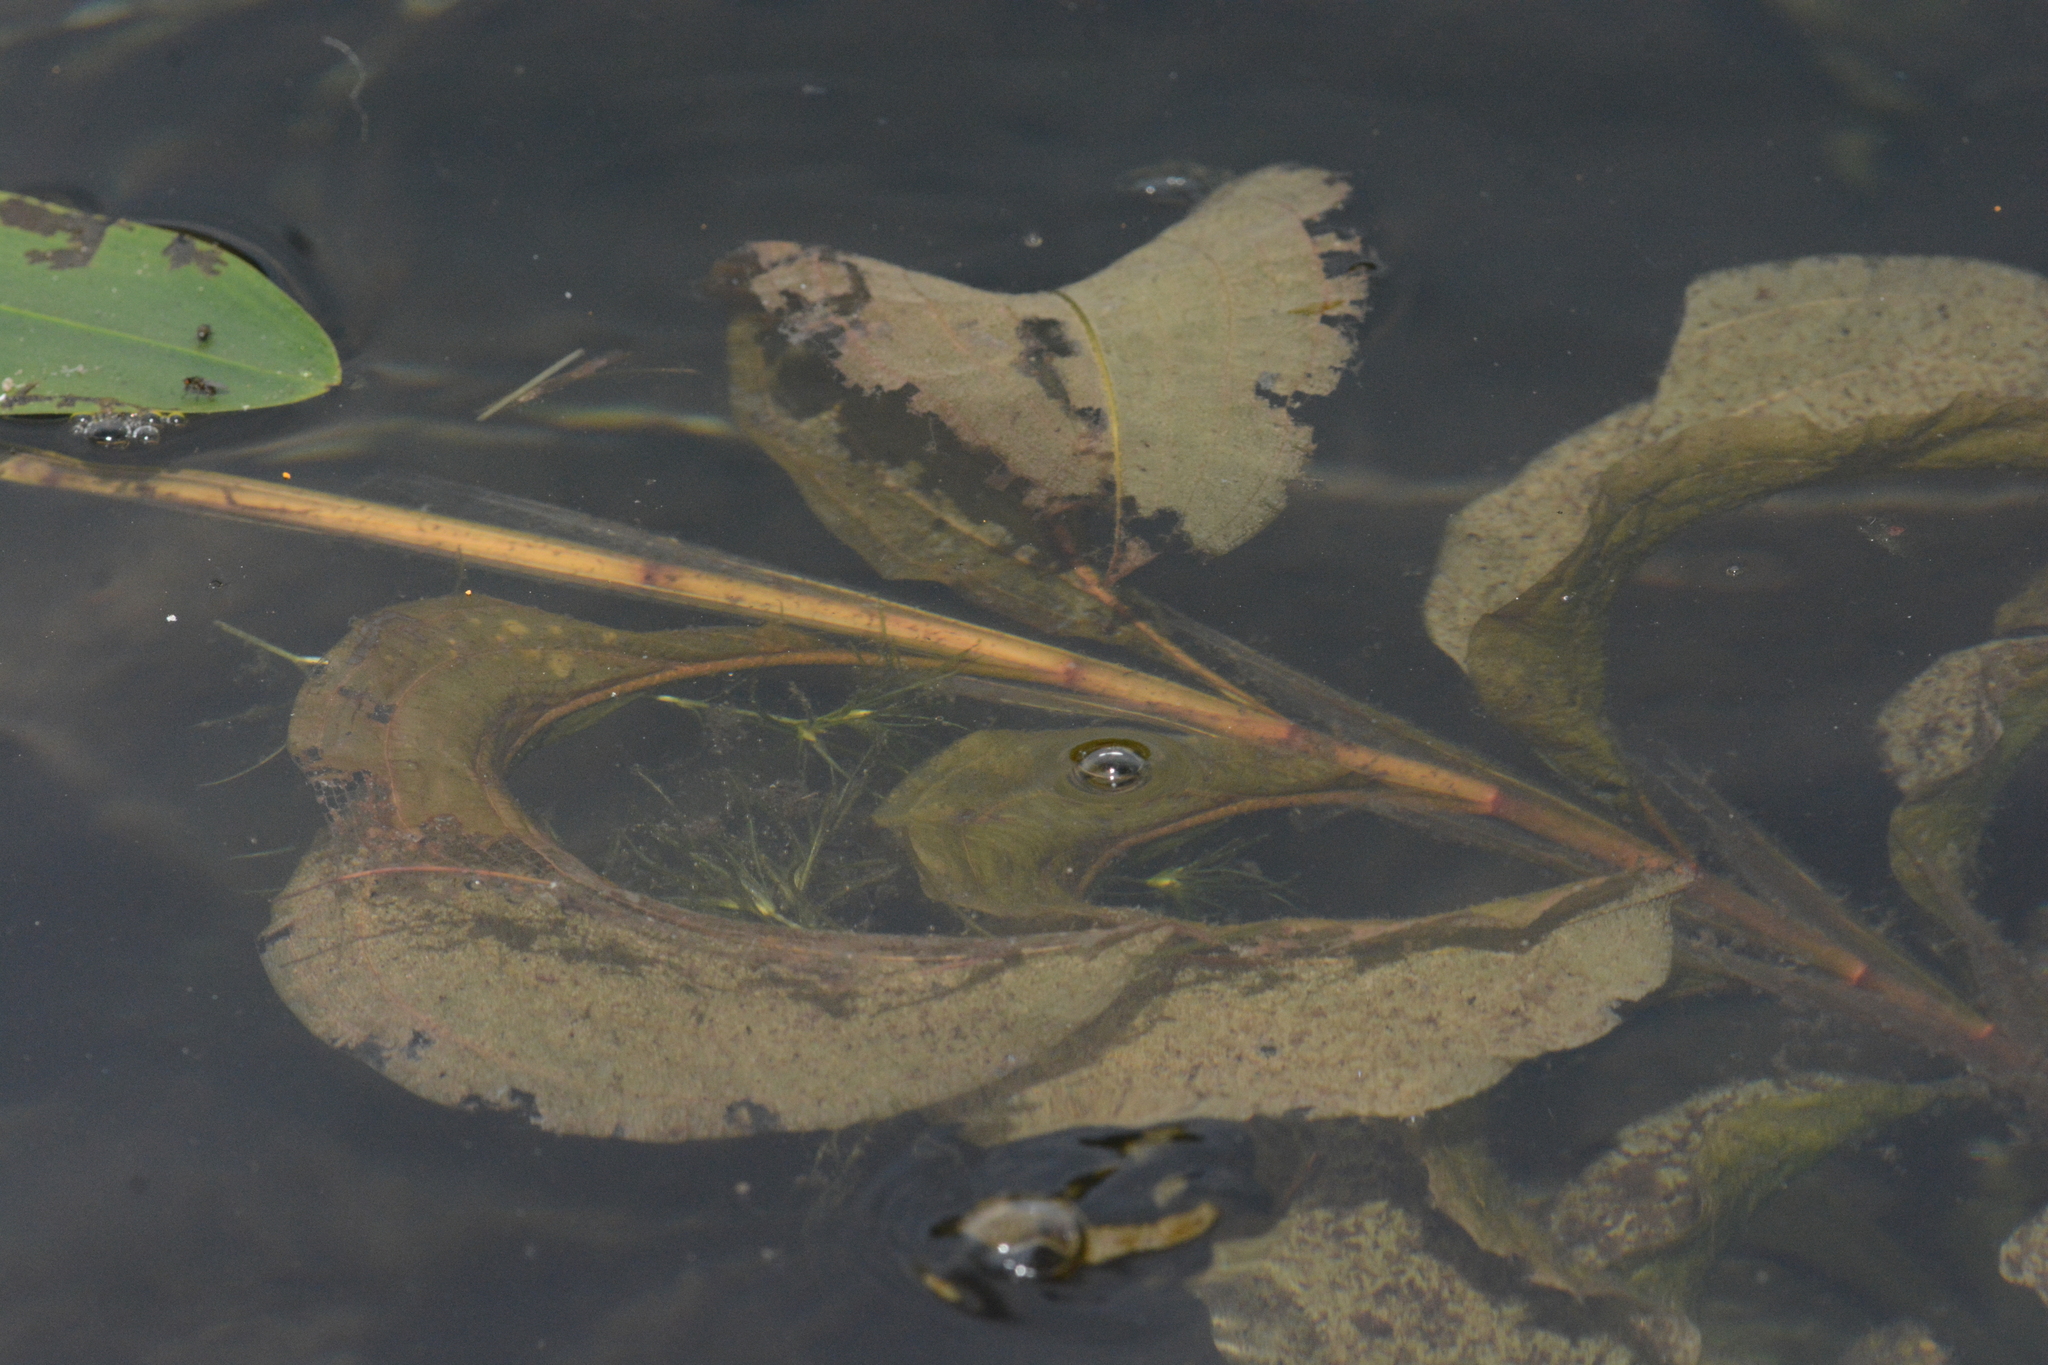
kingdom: Plantae
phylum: Tracheophyta
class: Liliopsida
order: Alismatales
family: Potamogetonaceae
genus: Potamogeton
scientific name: Potamogeton amplifolius
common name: Broad-leaved pondweed
